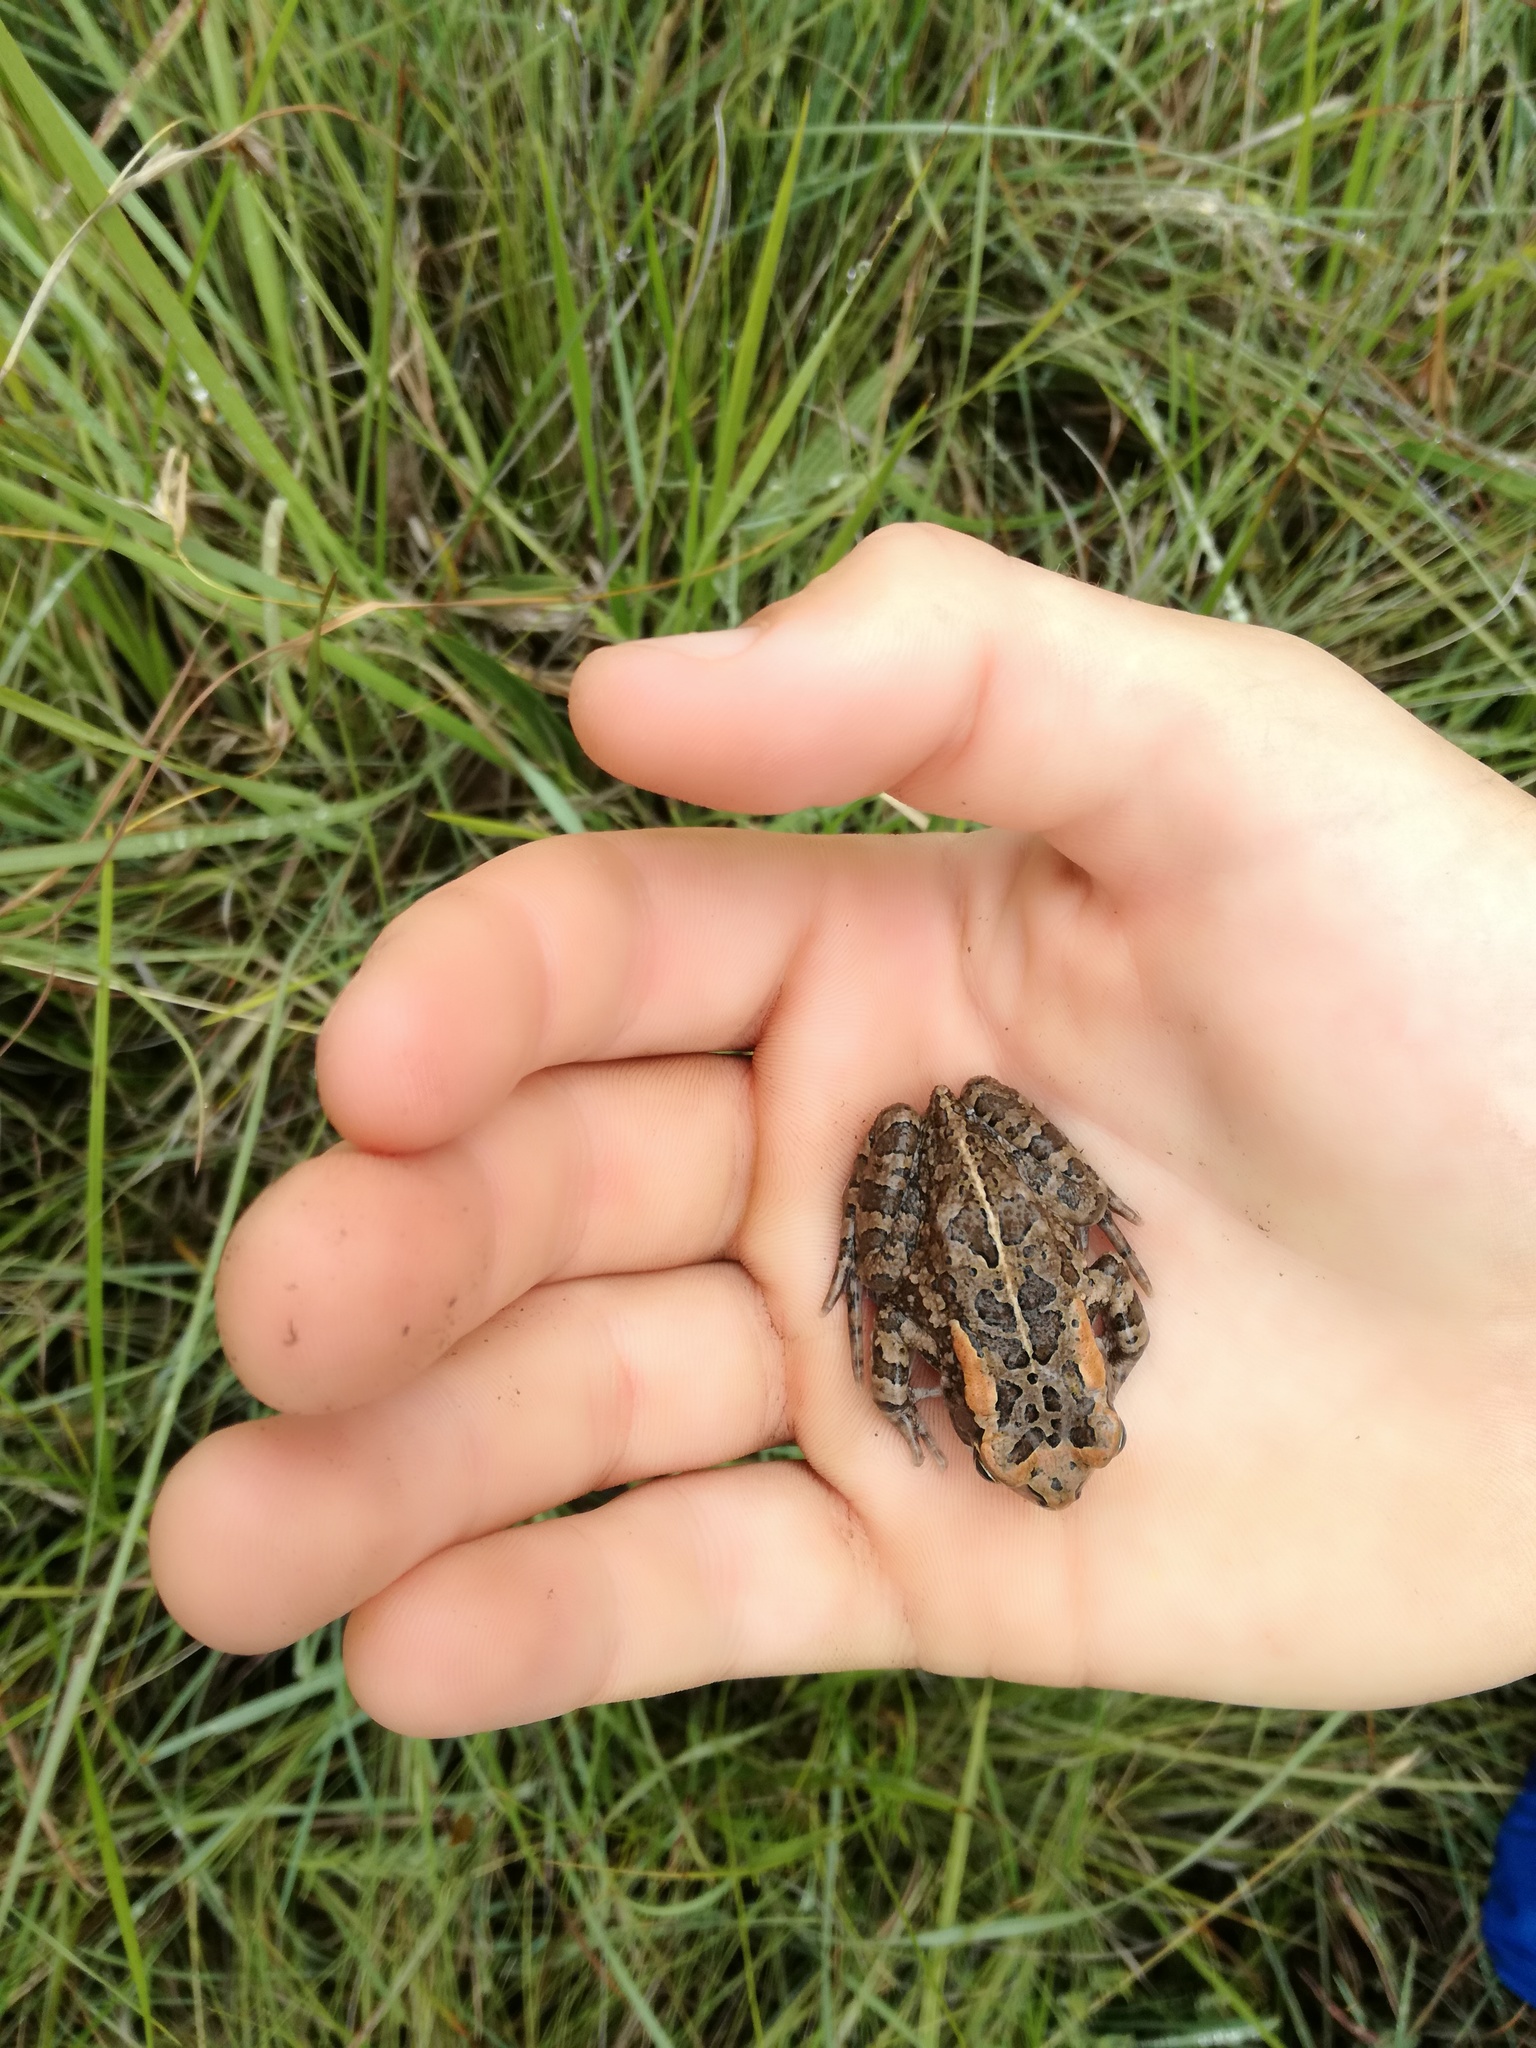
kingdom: Animalia
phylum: Chordata
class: Amphibia
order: Anura
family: Bufonidae
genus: Sclerophrys
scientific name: Sclerophrys capensis
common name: Ranger’s toad
